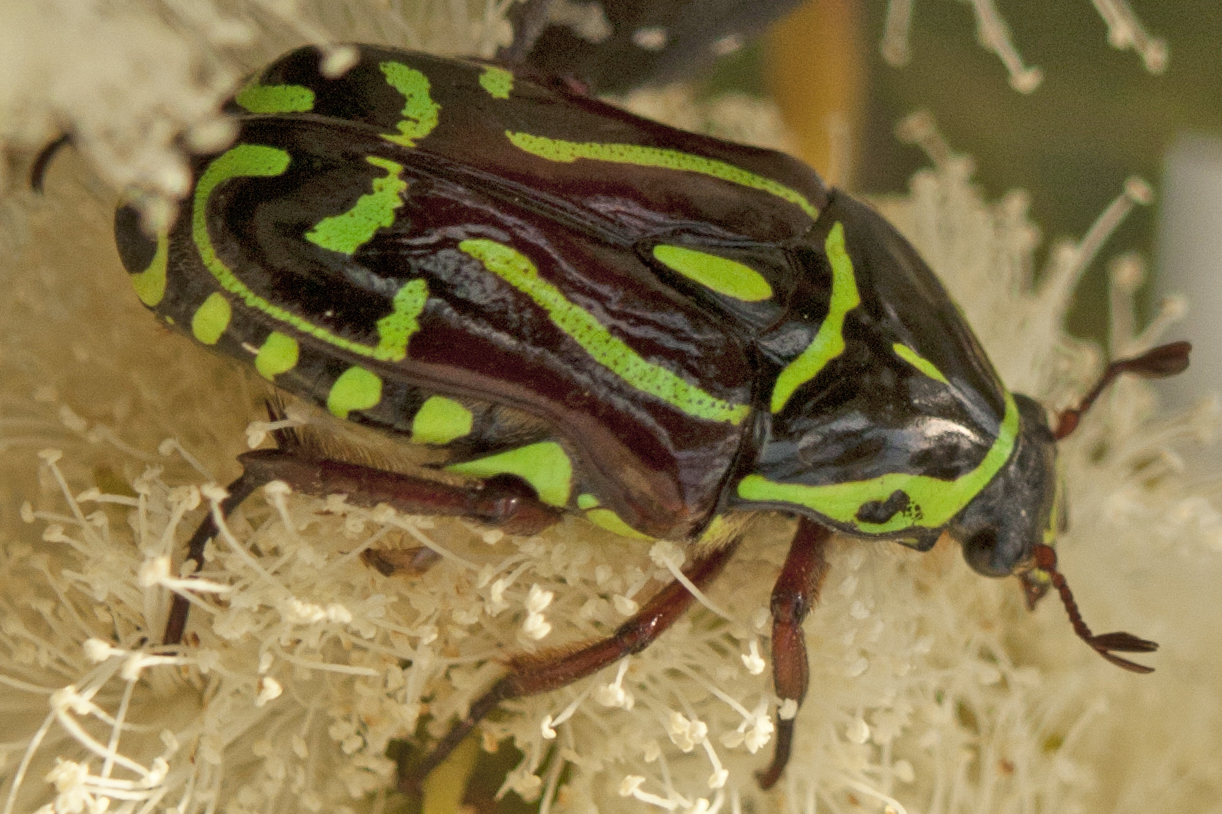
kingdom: Animalia
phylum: Arthropoda
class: Insecta
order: Coleoptera
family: Scarabaeidae
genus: Eupoecila
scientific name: Eupoecila australasiae
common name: Fiddler beetle
